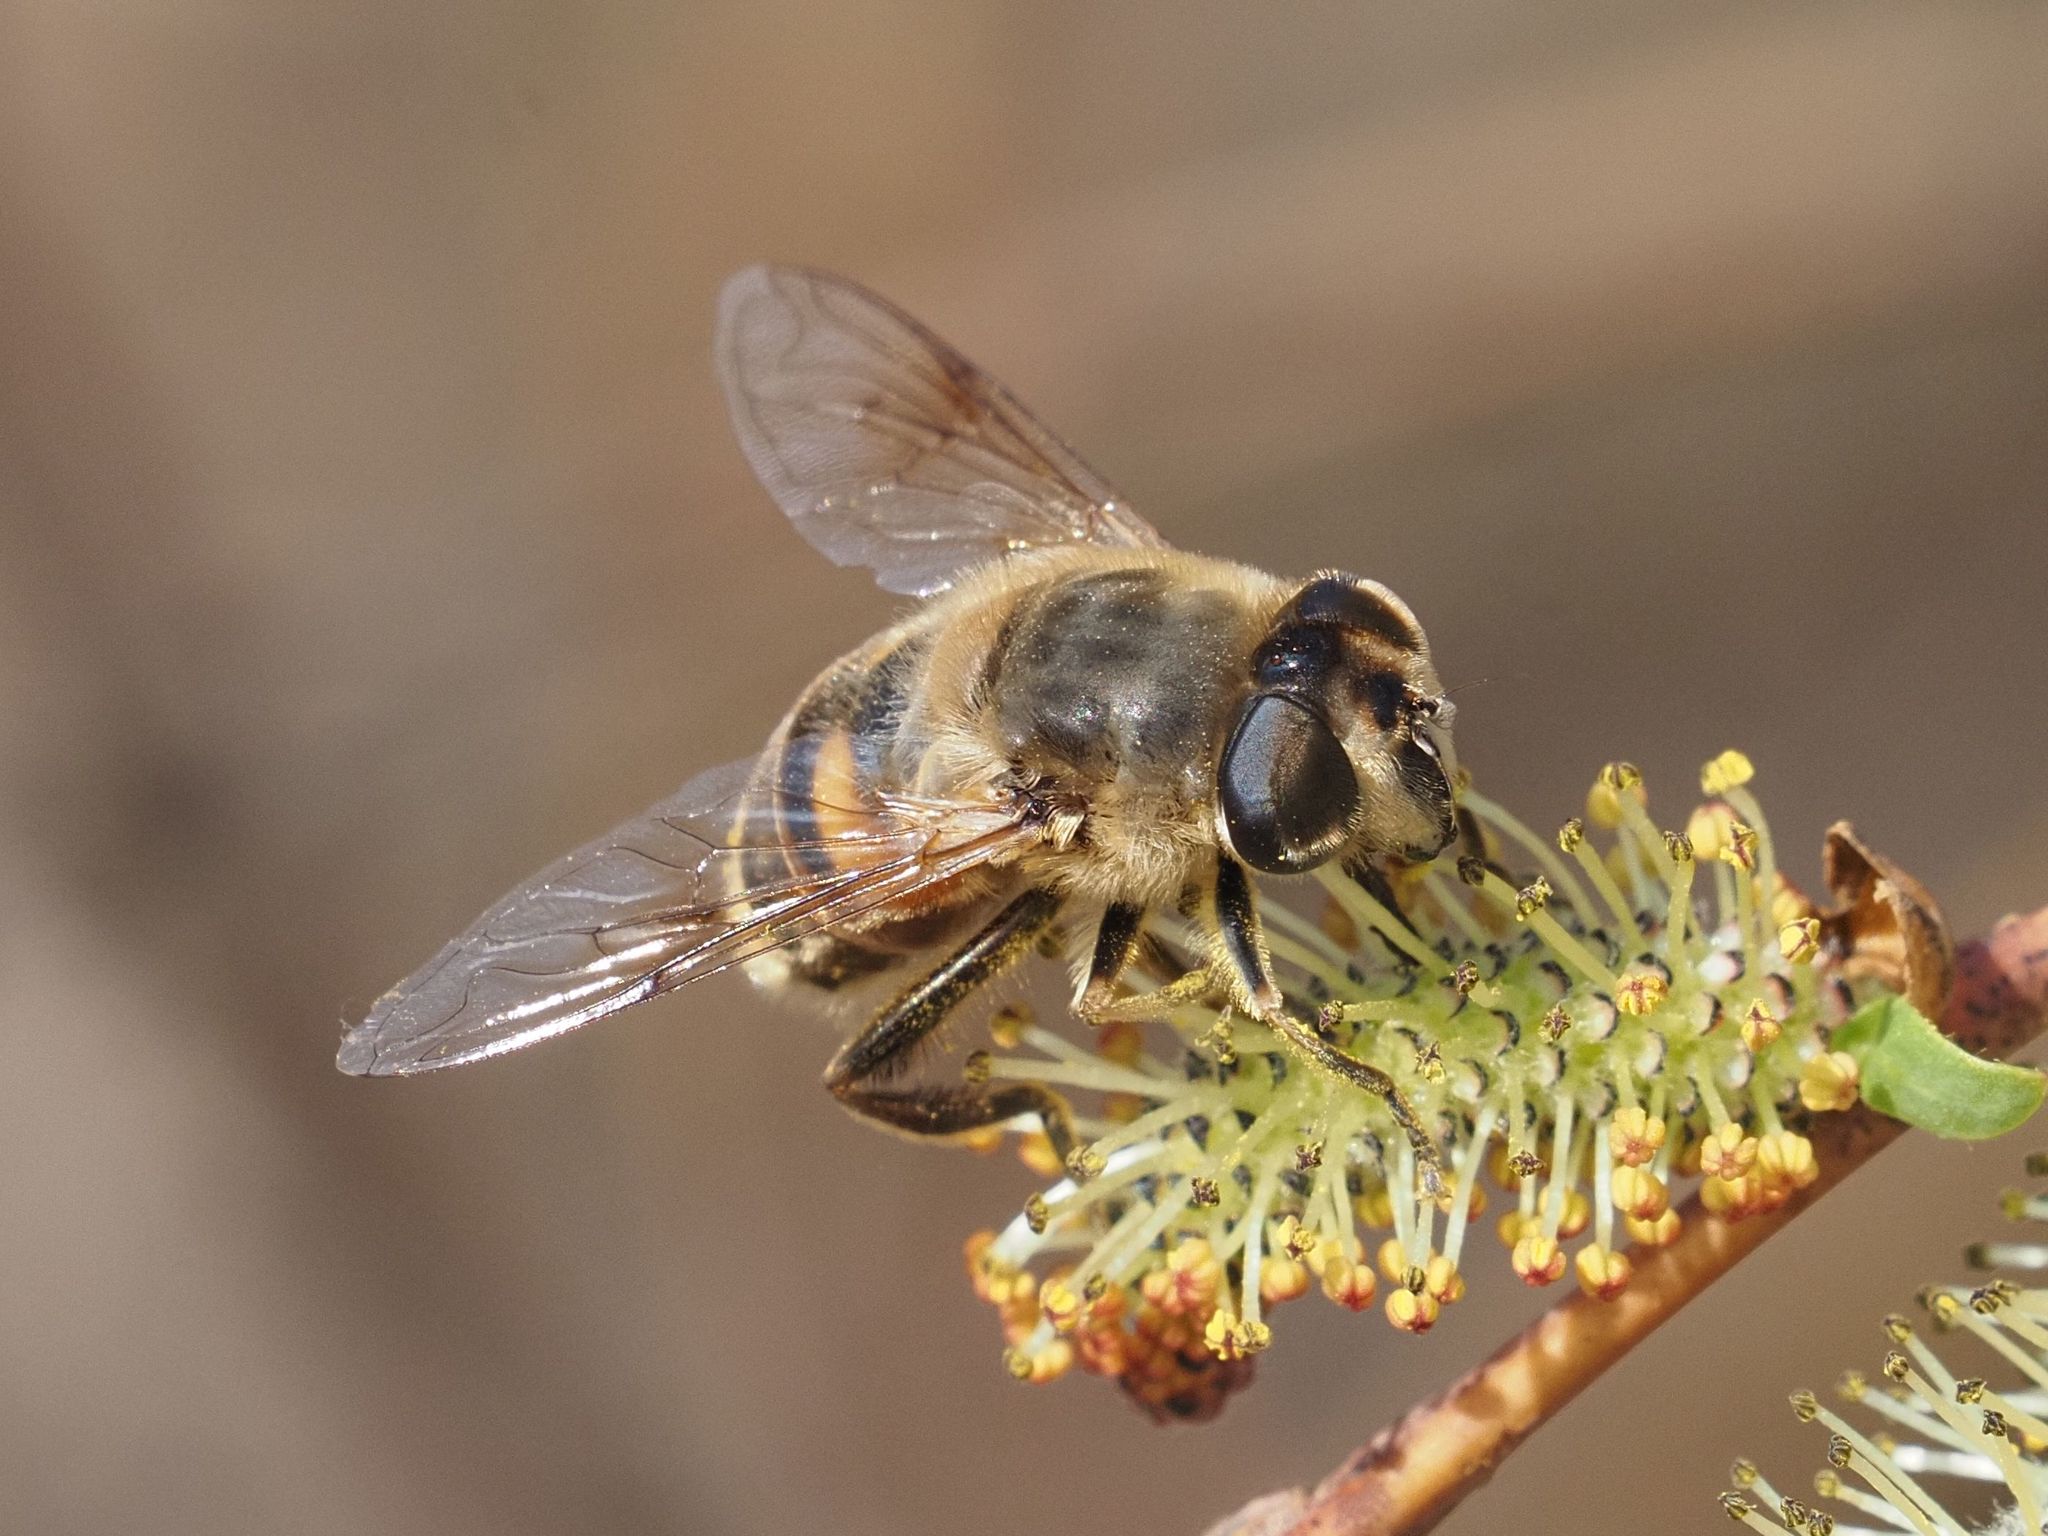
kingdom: Animalia
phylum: Arthropoda
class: Insecta
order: Diptera
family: Syrphidae
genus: Eristalis
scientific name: Eristalis tenax
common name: Drone fly
